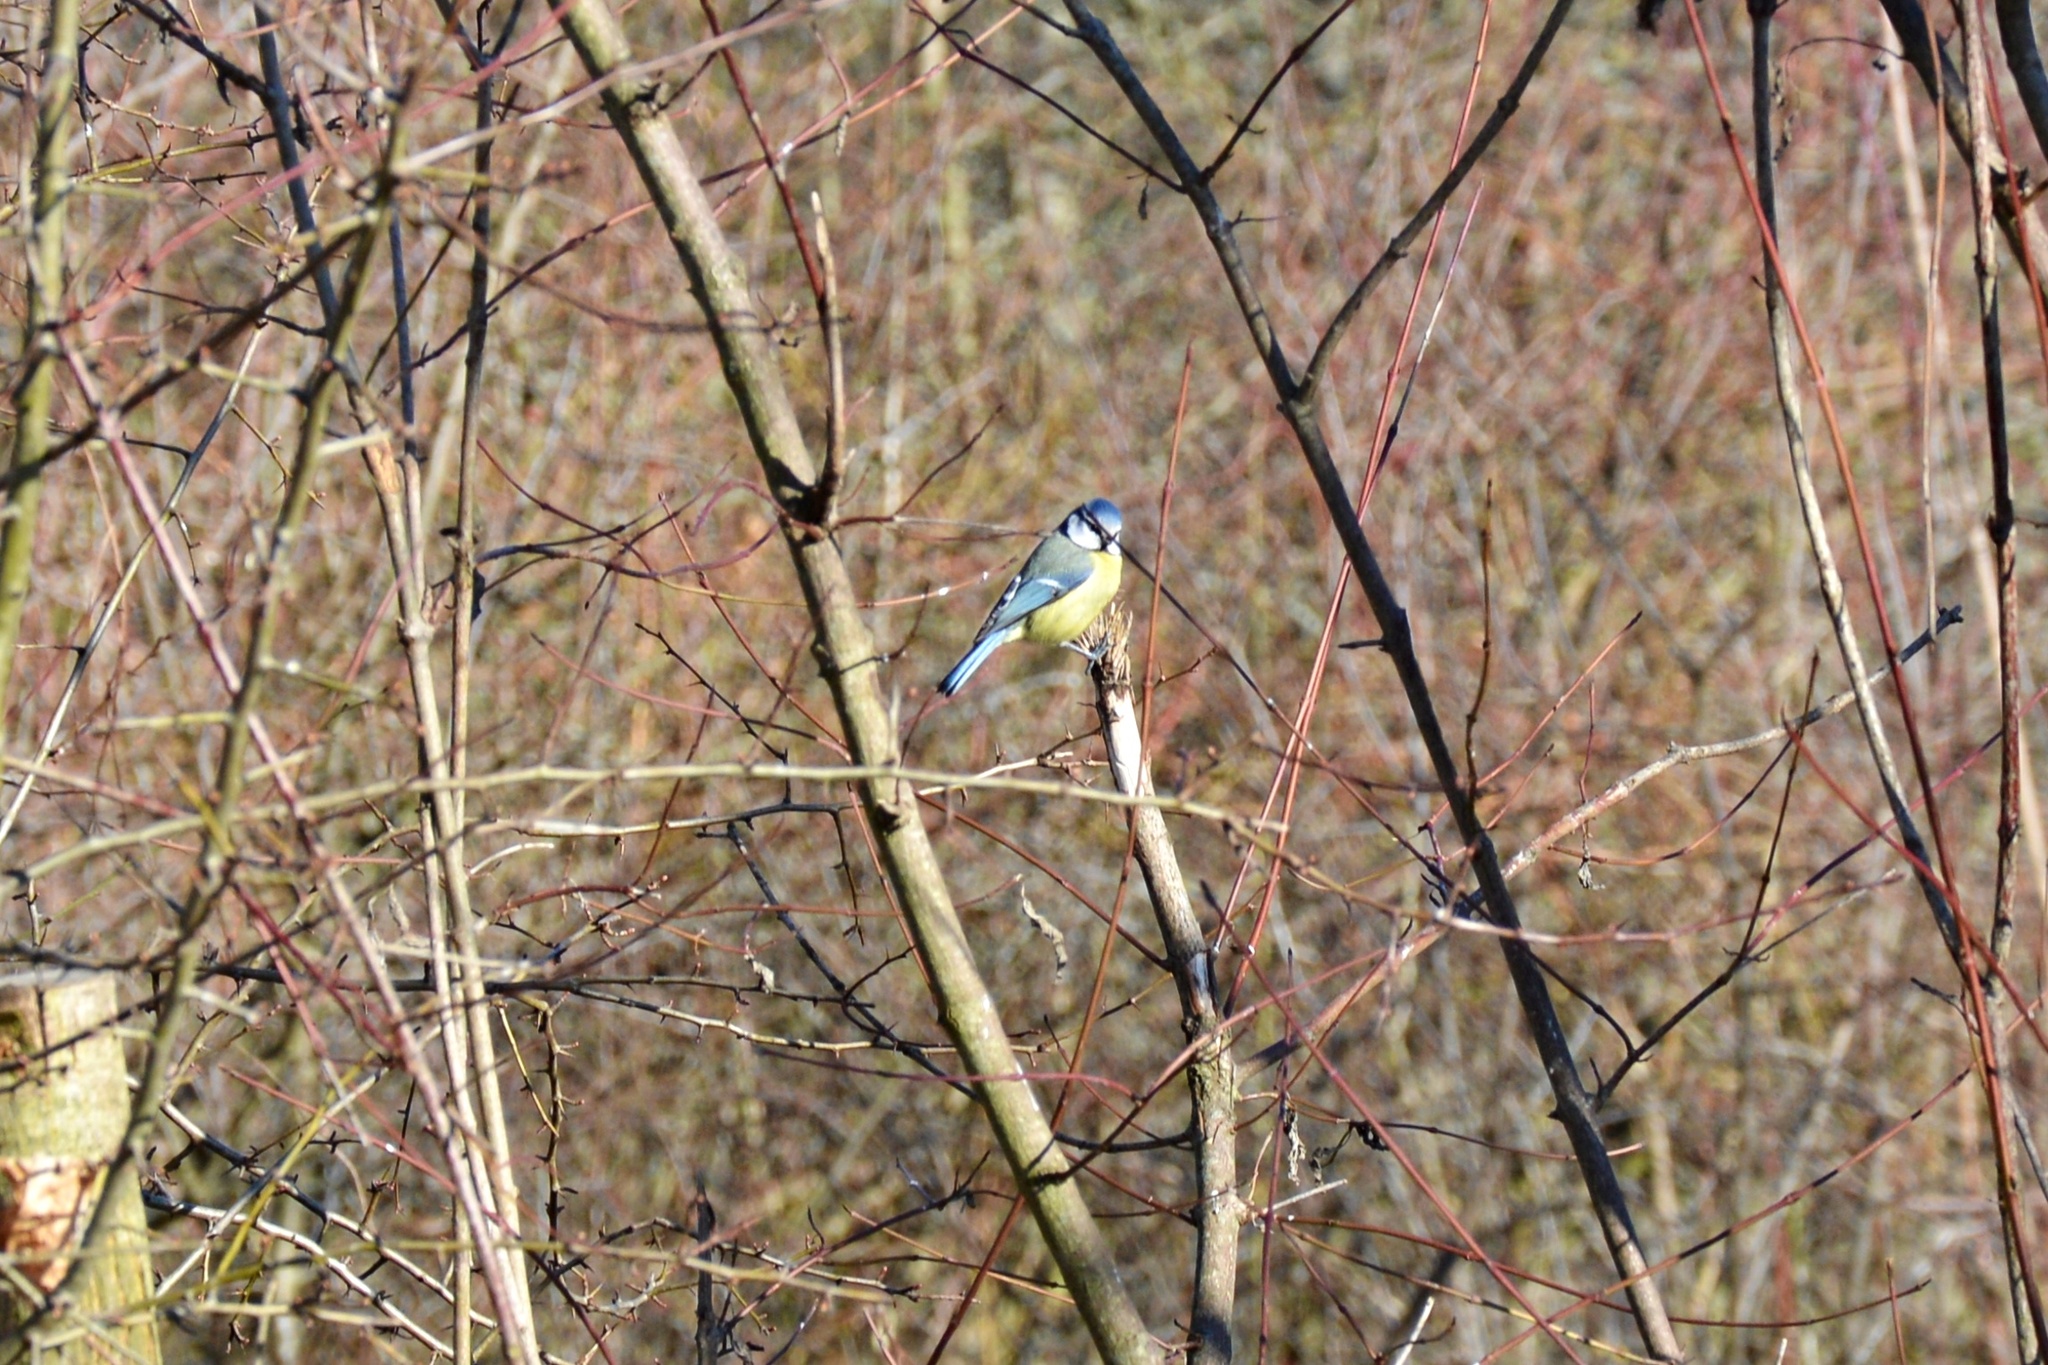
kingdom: Animalia
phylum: Chordata
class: Aves
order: Passeriformes
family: Paridae
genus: Cyanistes
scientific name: Cyanistes caeruleus
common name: Eurasian blue tit
